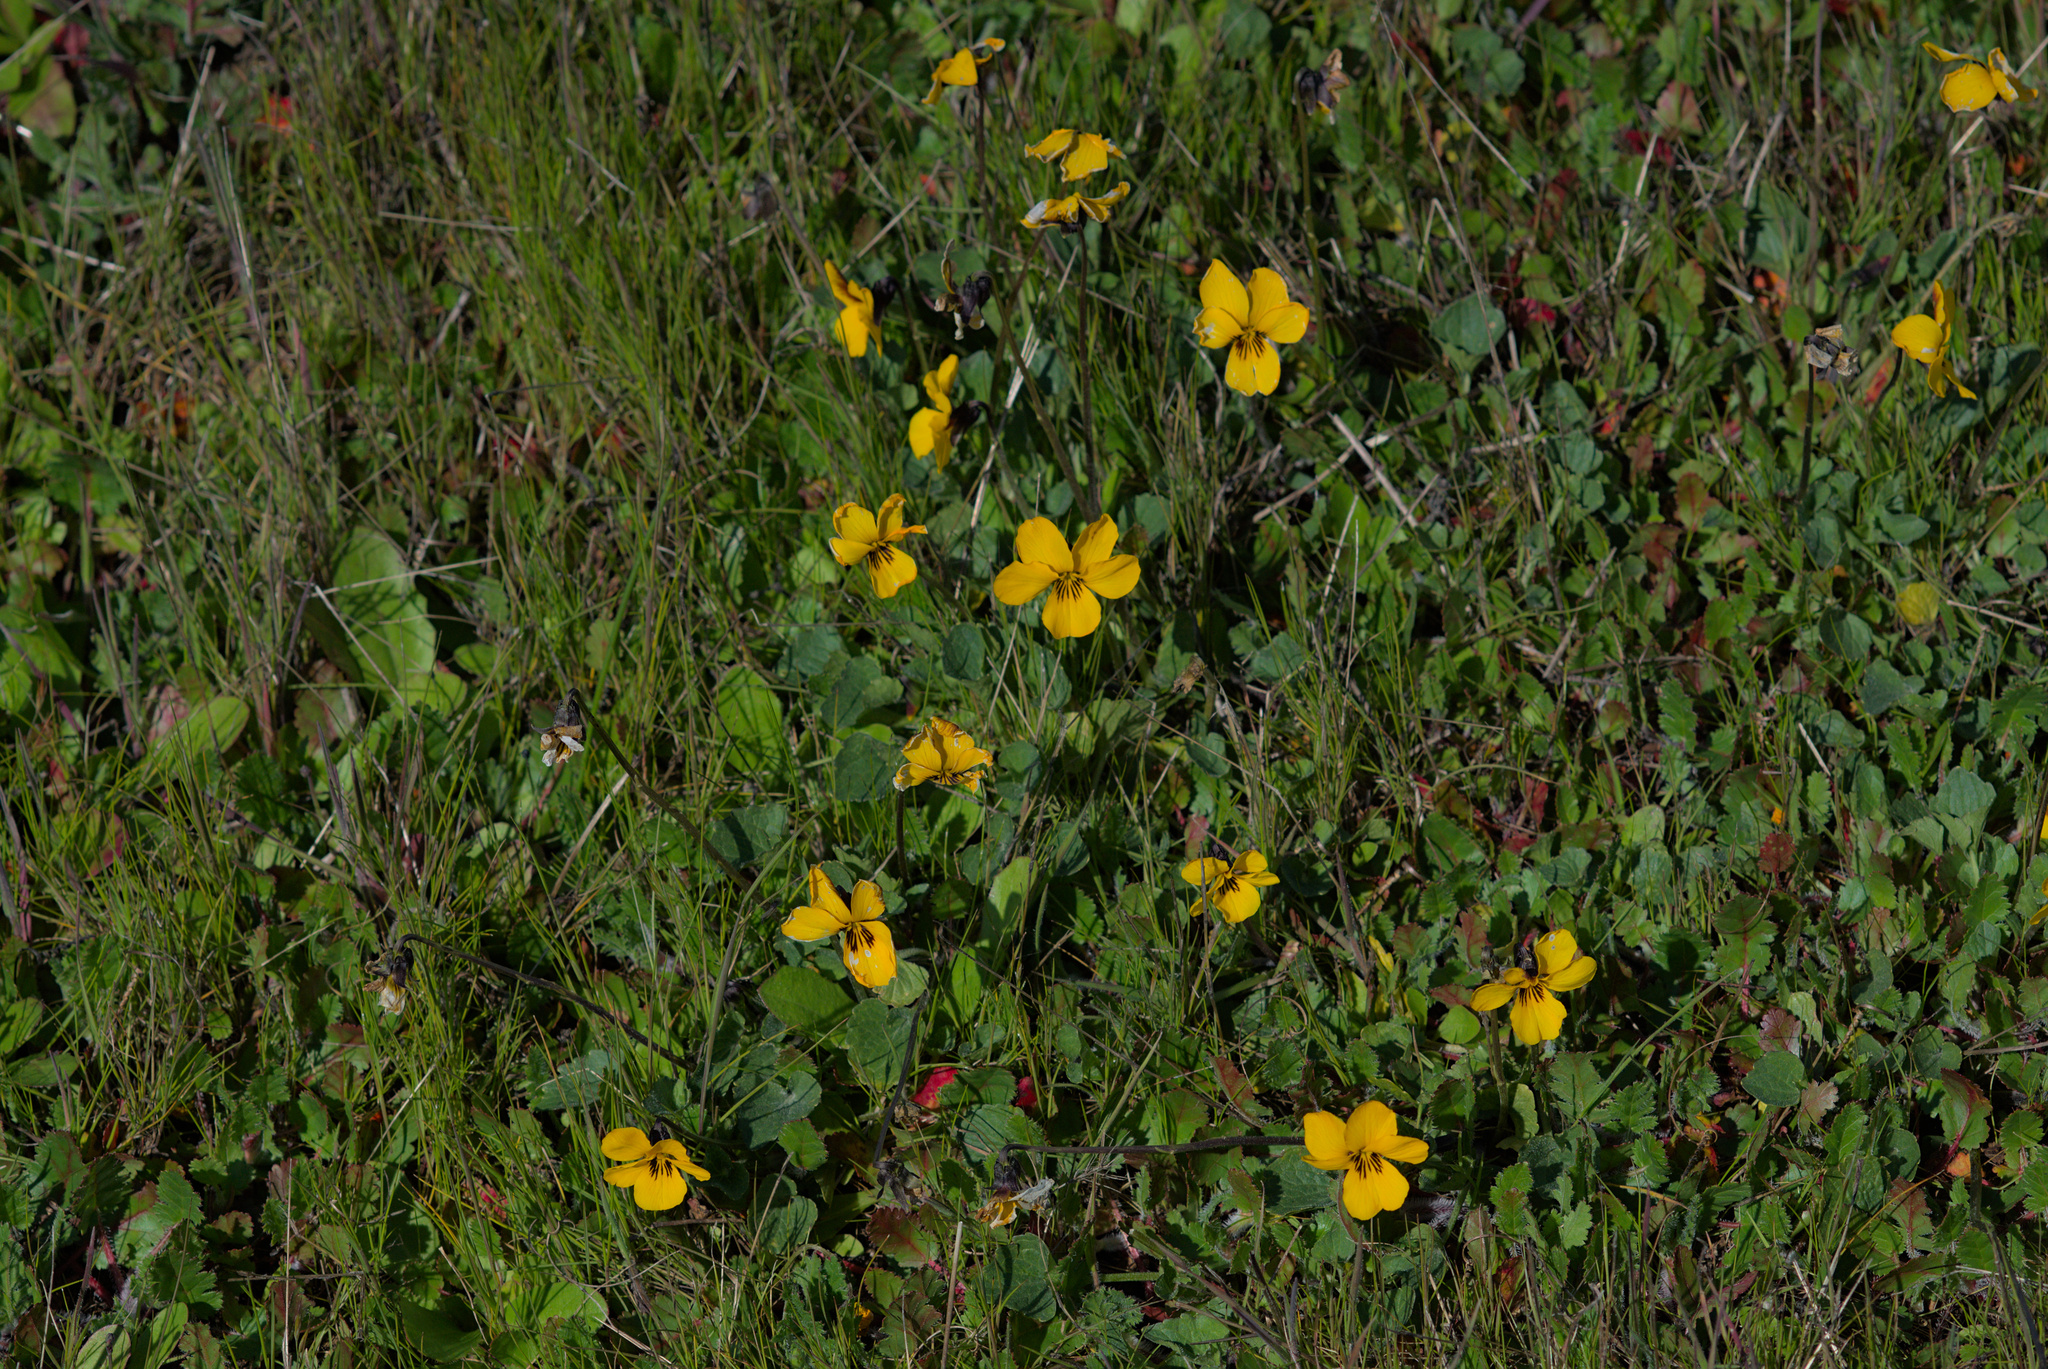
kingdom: Plantae
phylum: Tracheophyta
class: Magnoliopsida
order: Malpighiales
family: Violaceae
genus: Viola
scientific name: Viola pedunculata
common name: California golden violet
